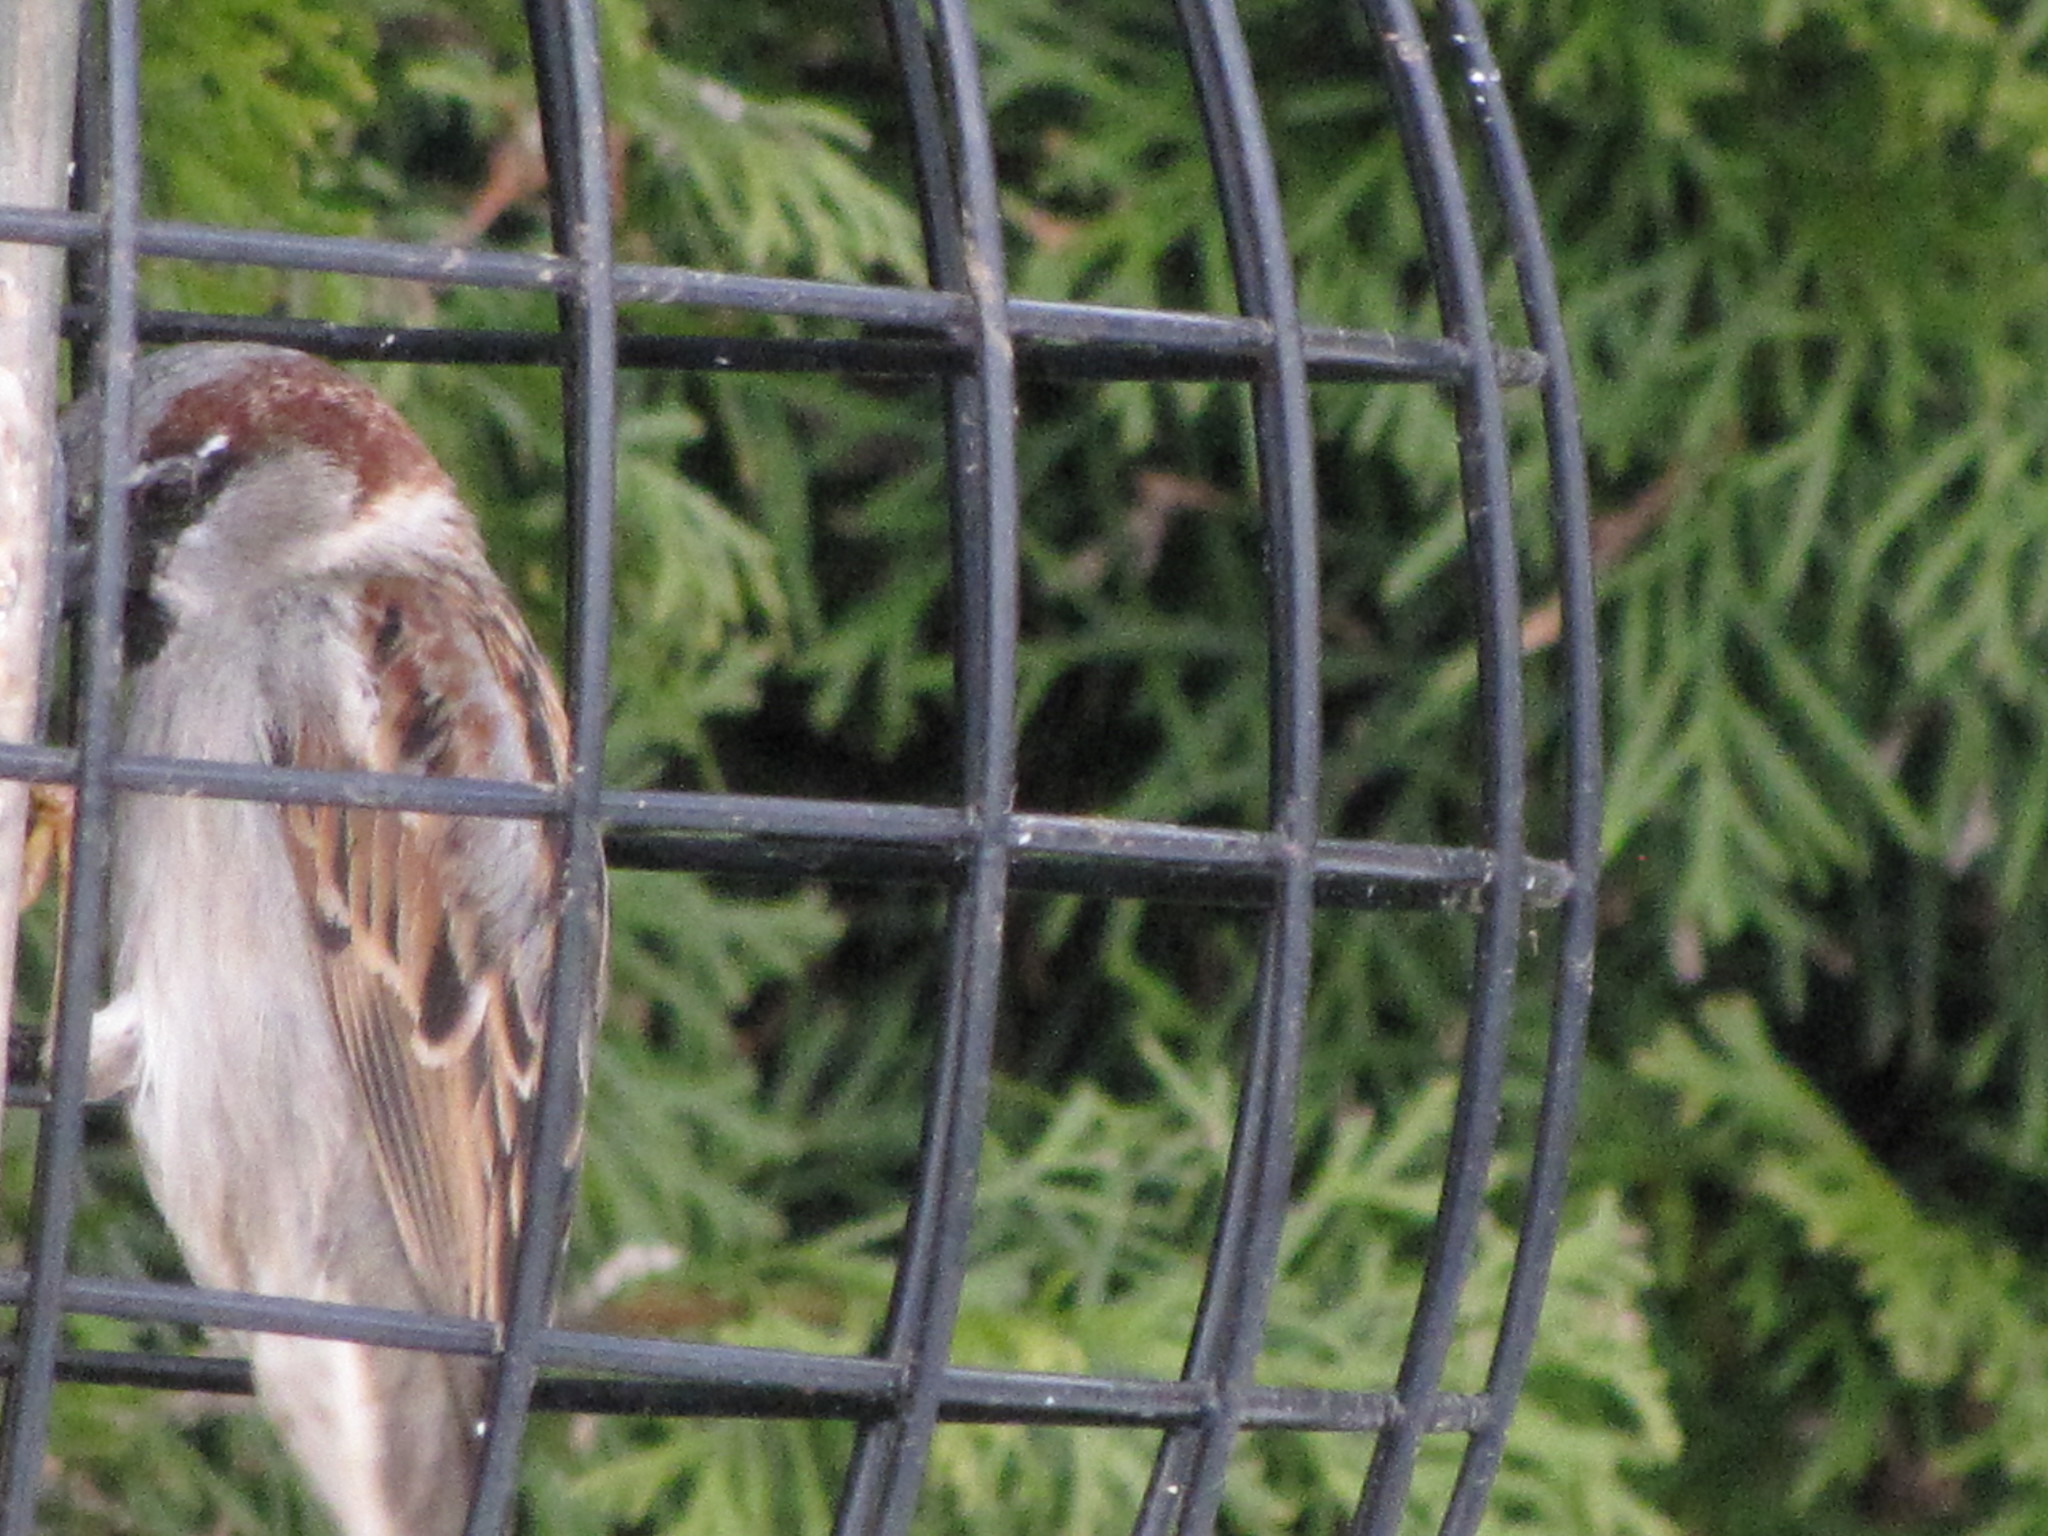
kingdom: Animalia
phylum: Chordata
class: Aves
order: Passeriformes
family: Passeridae
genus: Passer
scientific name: Passer domesticus
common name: House sparrow
